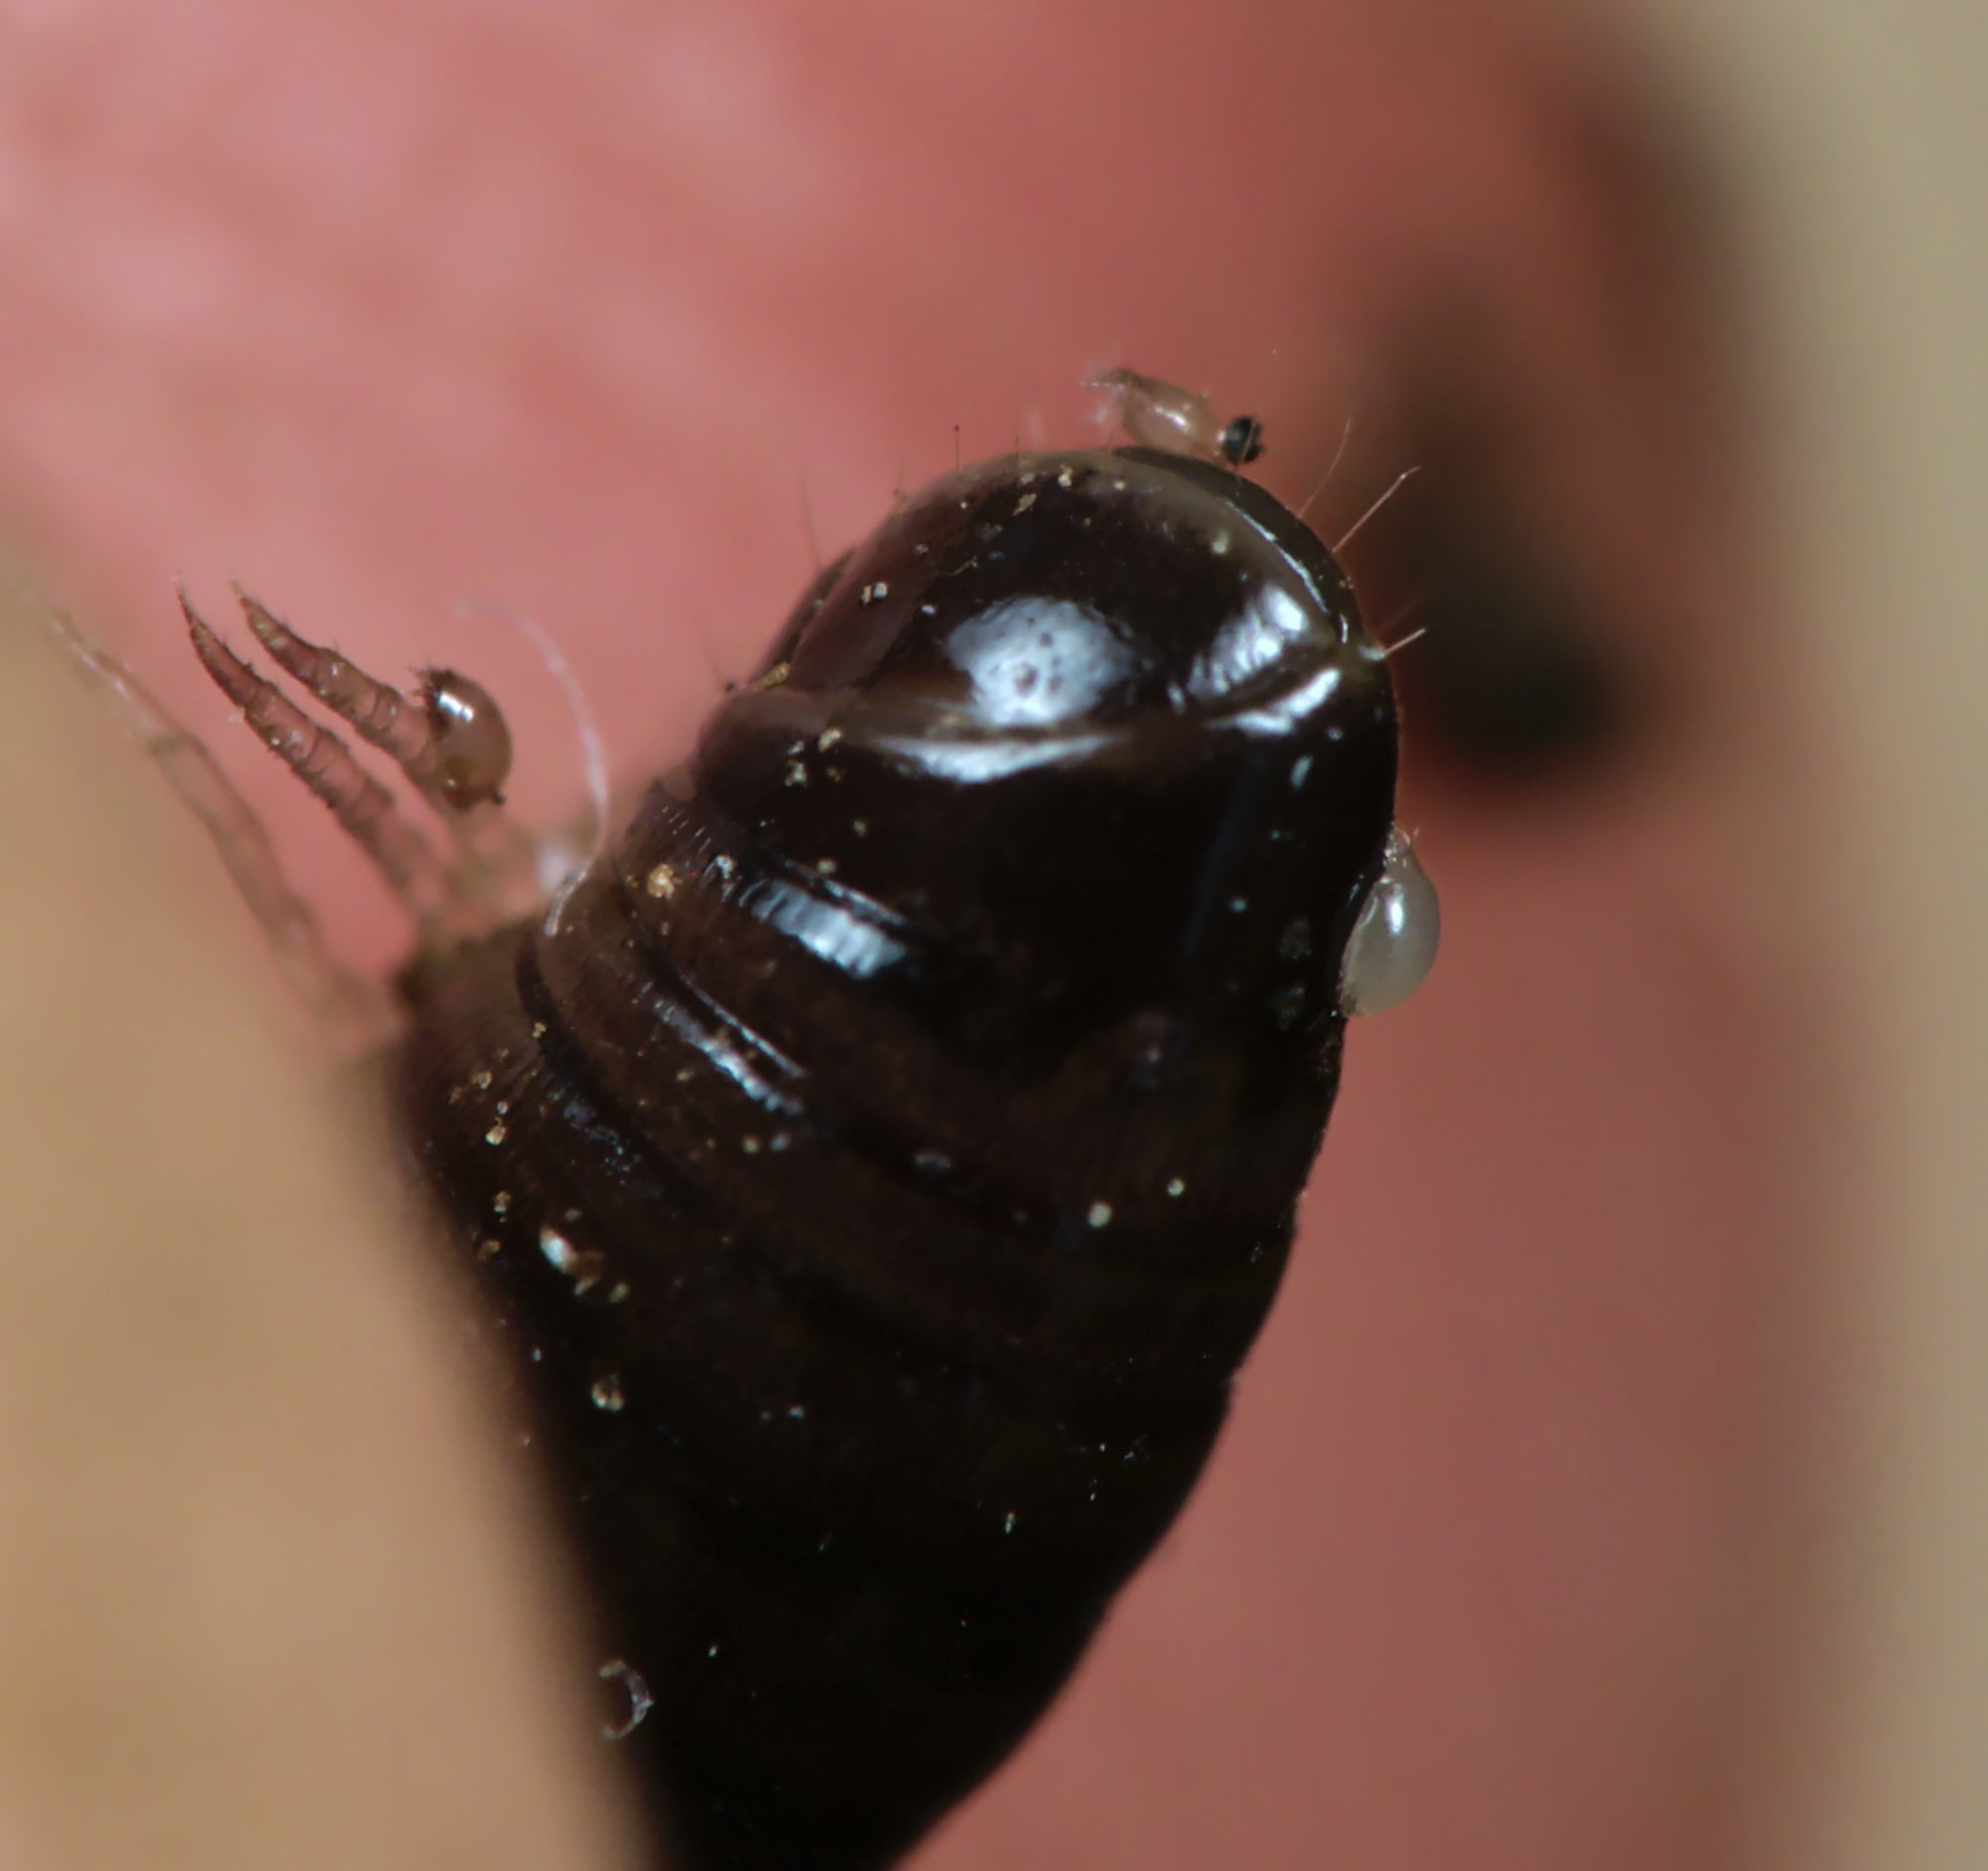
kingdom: Animalia
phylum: Arthropoda
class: Diplopoda
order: Julida
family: Julidae
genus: Cylindroiulus
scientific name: Cylindroiulus caeruleocinctus
